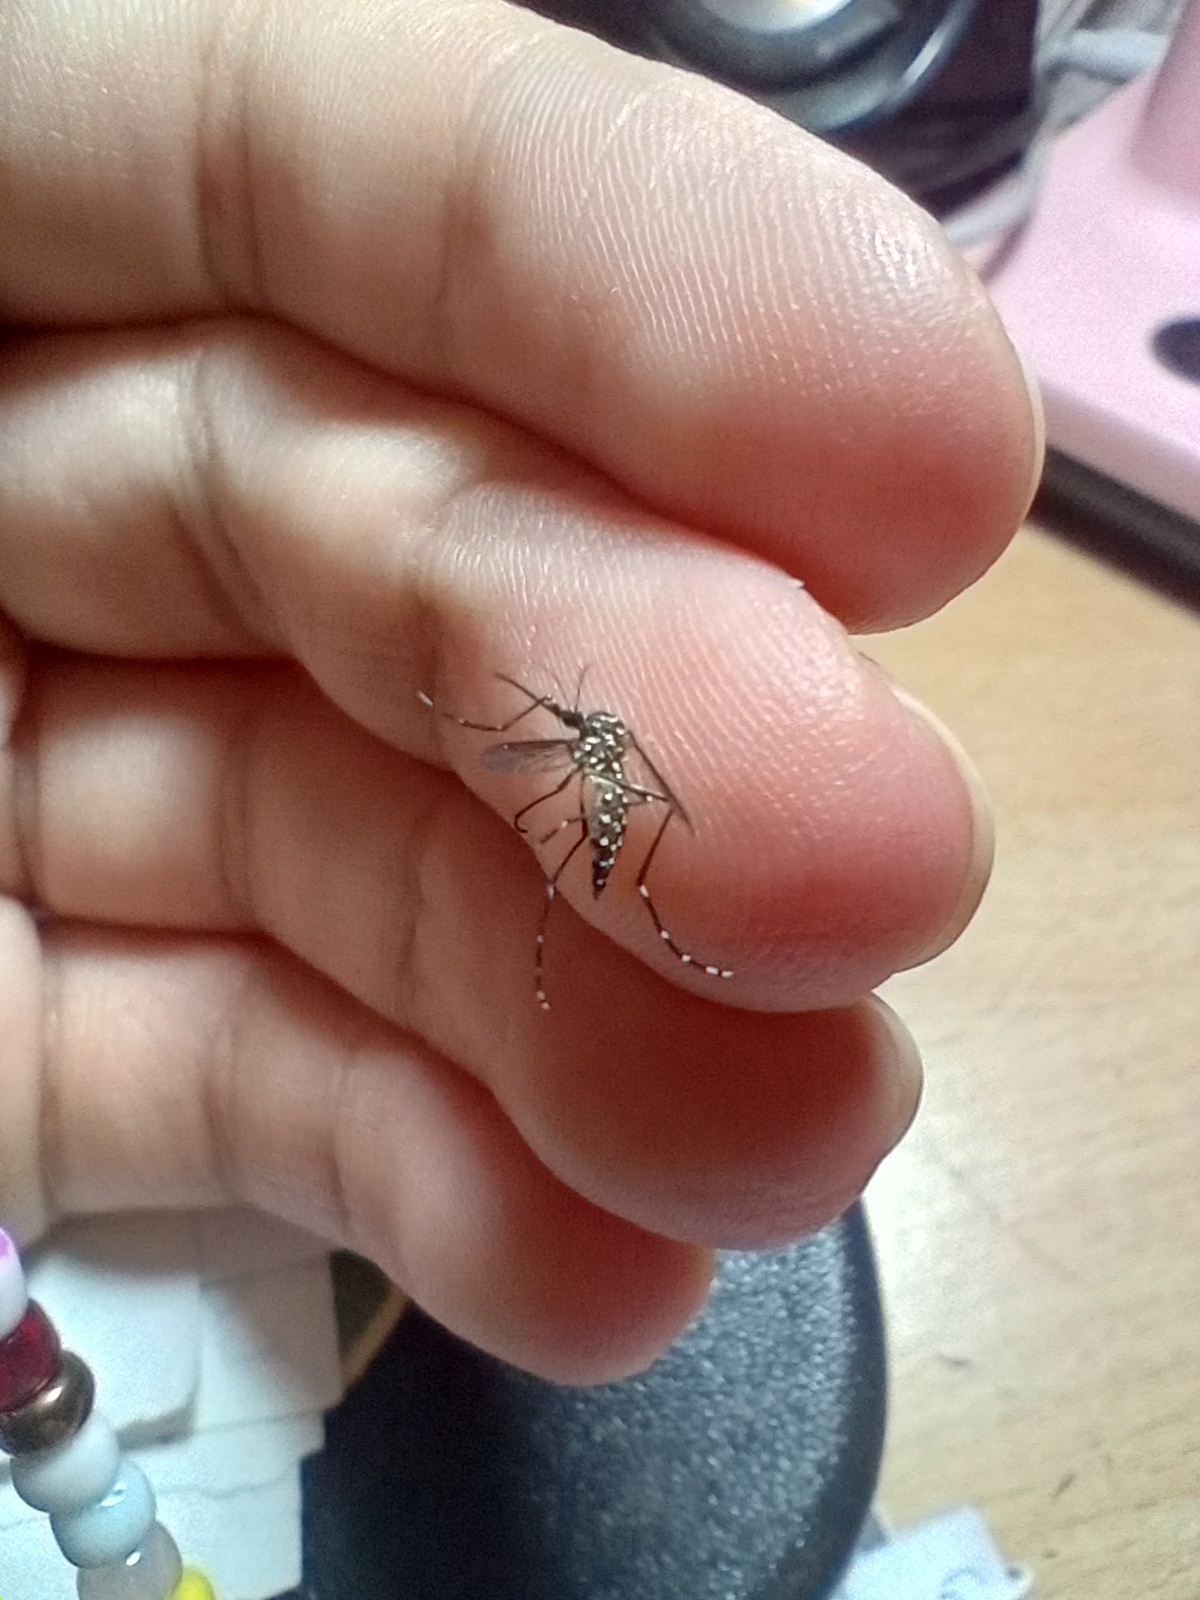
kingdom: Animalia
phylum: Arthropoda
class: Insecta
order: Diptera
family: Culicidae
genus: Aedes
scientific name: Aedes aegypti
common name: Yellow fever mosquito
